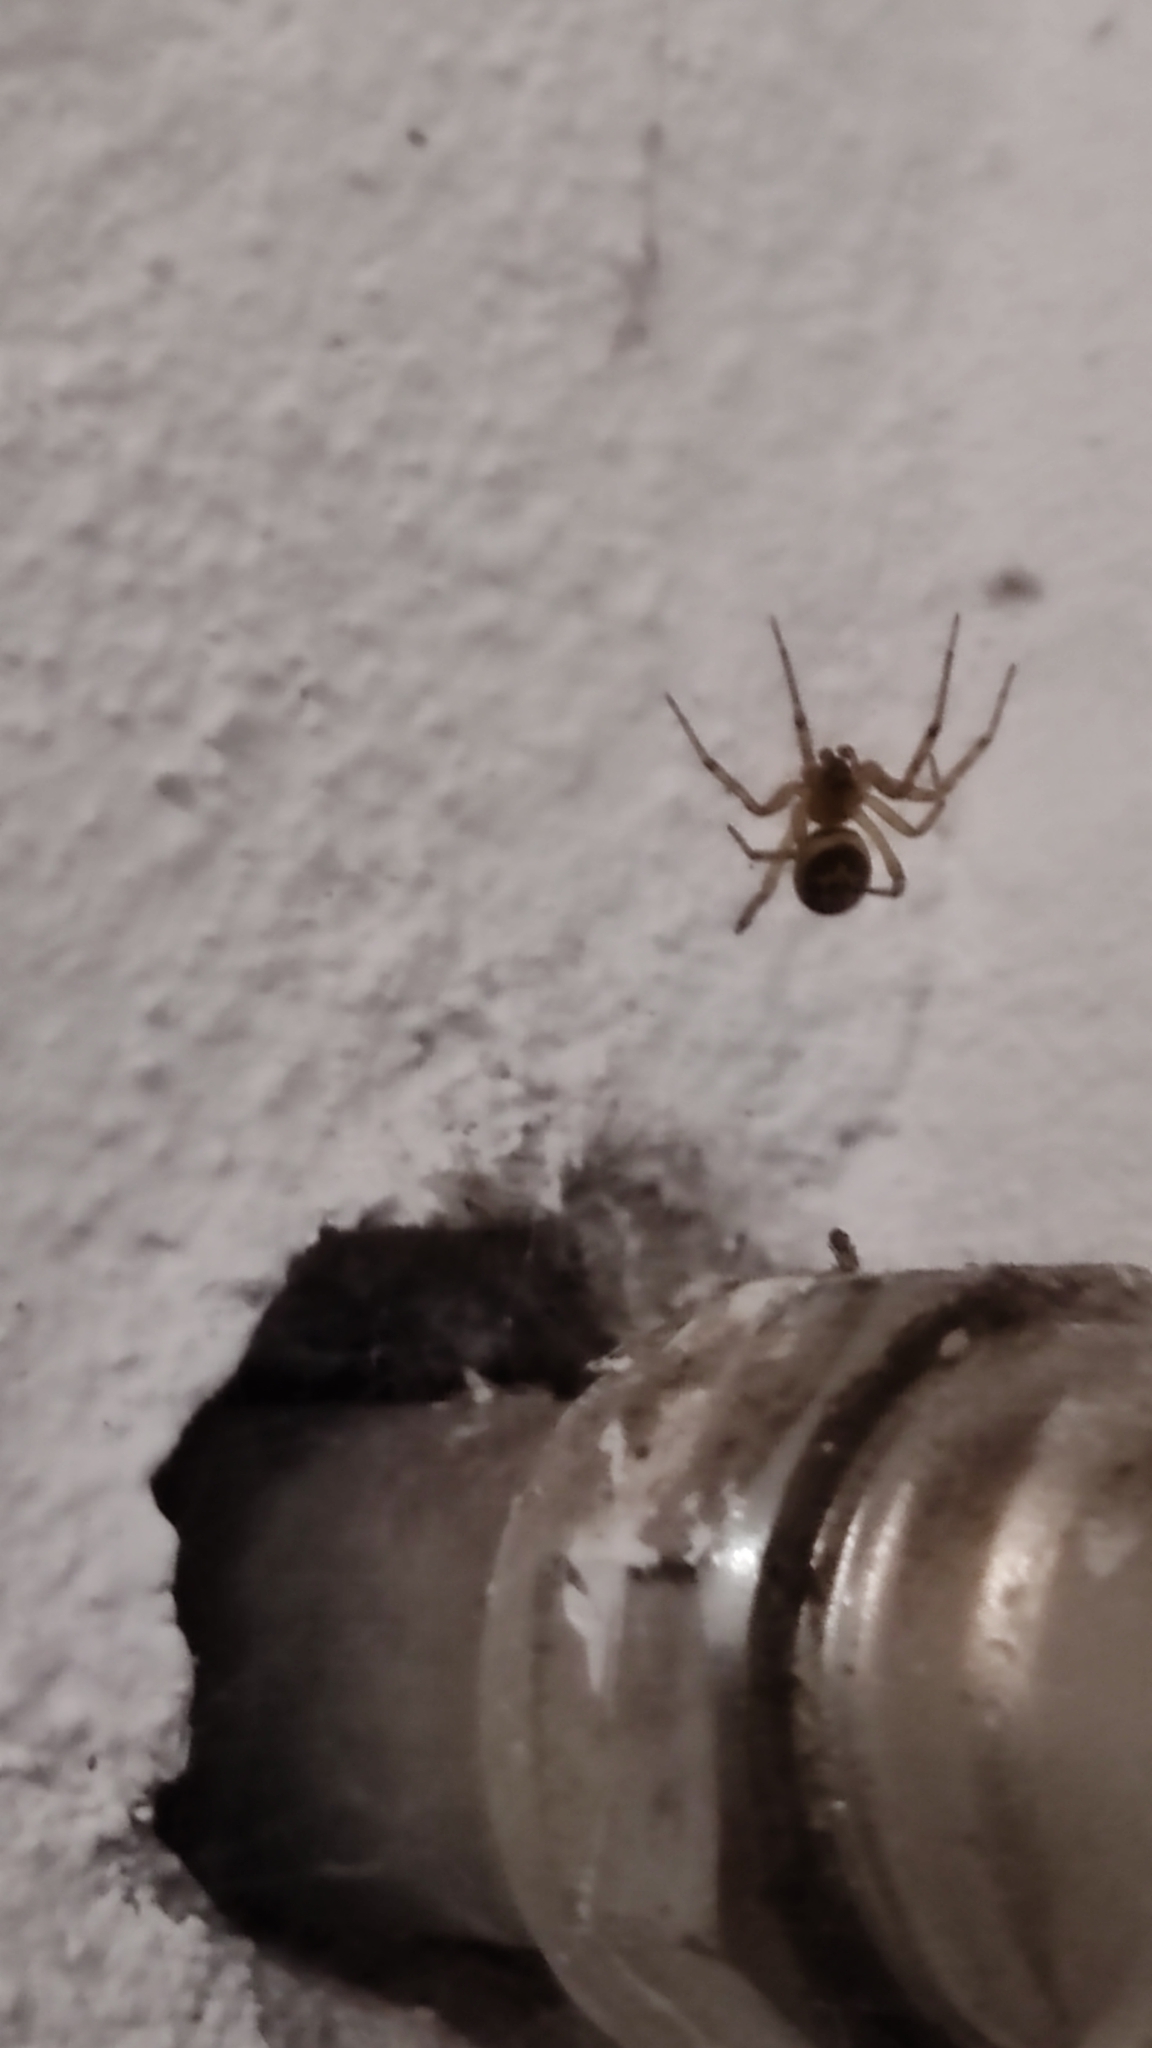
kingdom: Animalia
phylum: Arthropoda
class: Arachnida
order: Araneae
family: Theridiidae
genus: Steatoda
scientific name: Steatoda nobilis
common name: Cobweb weaver
